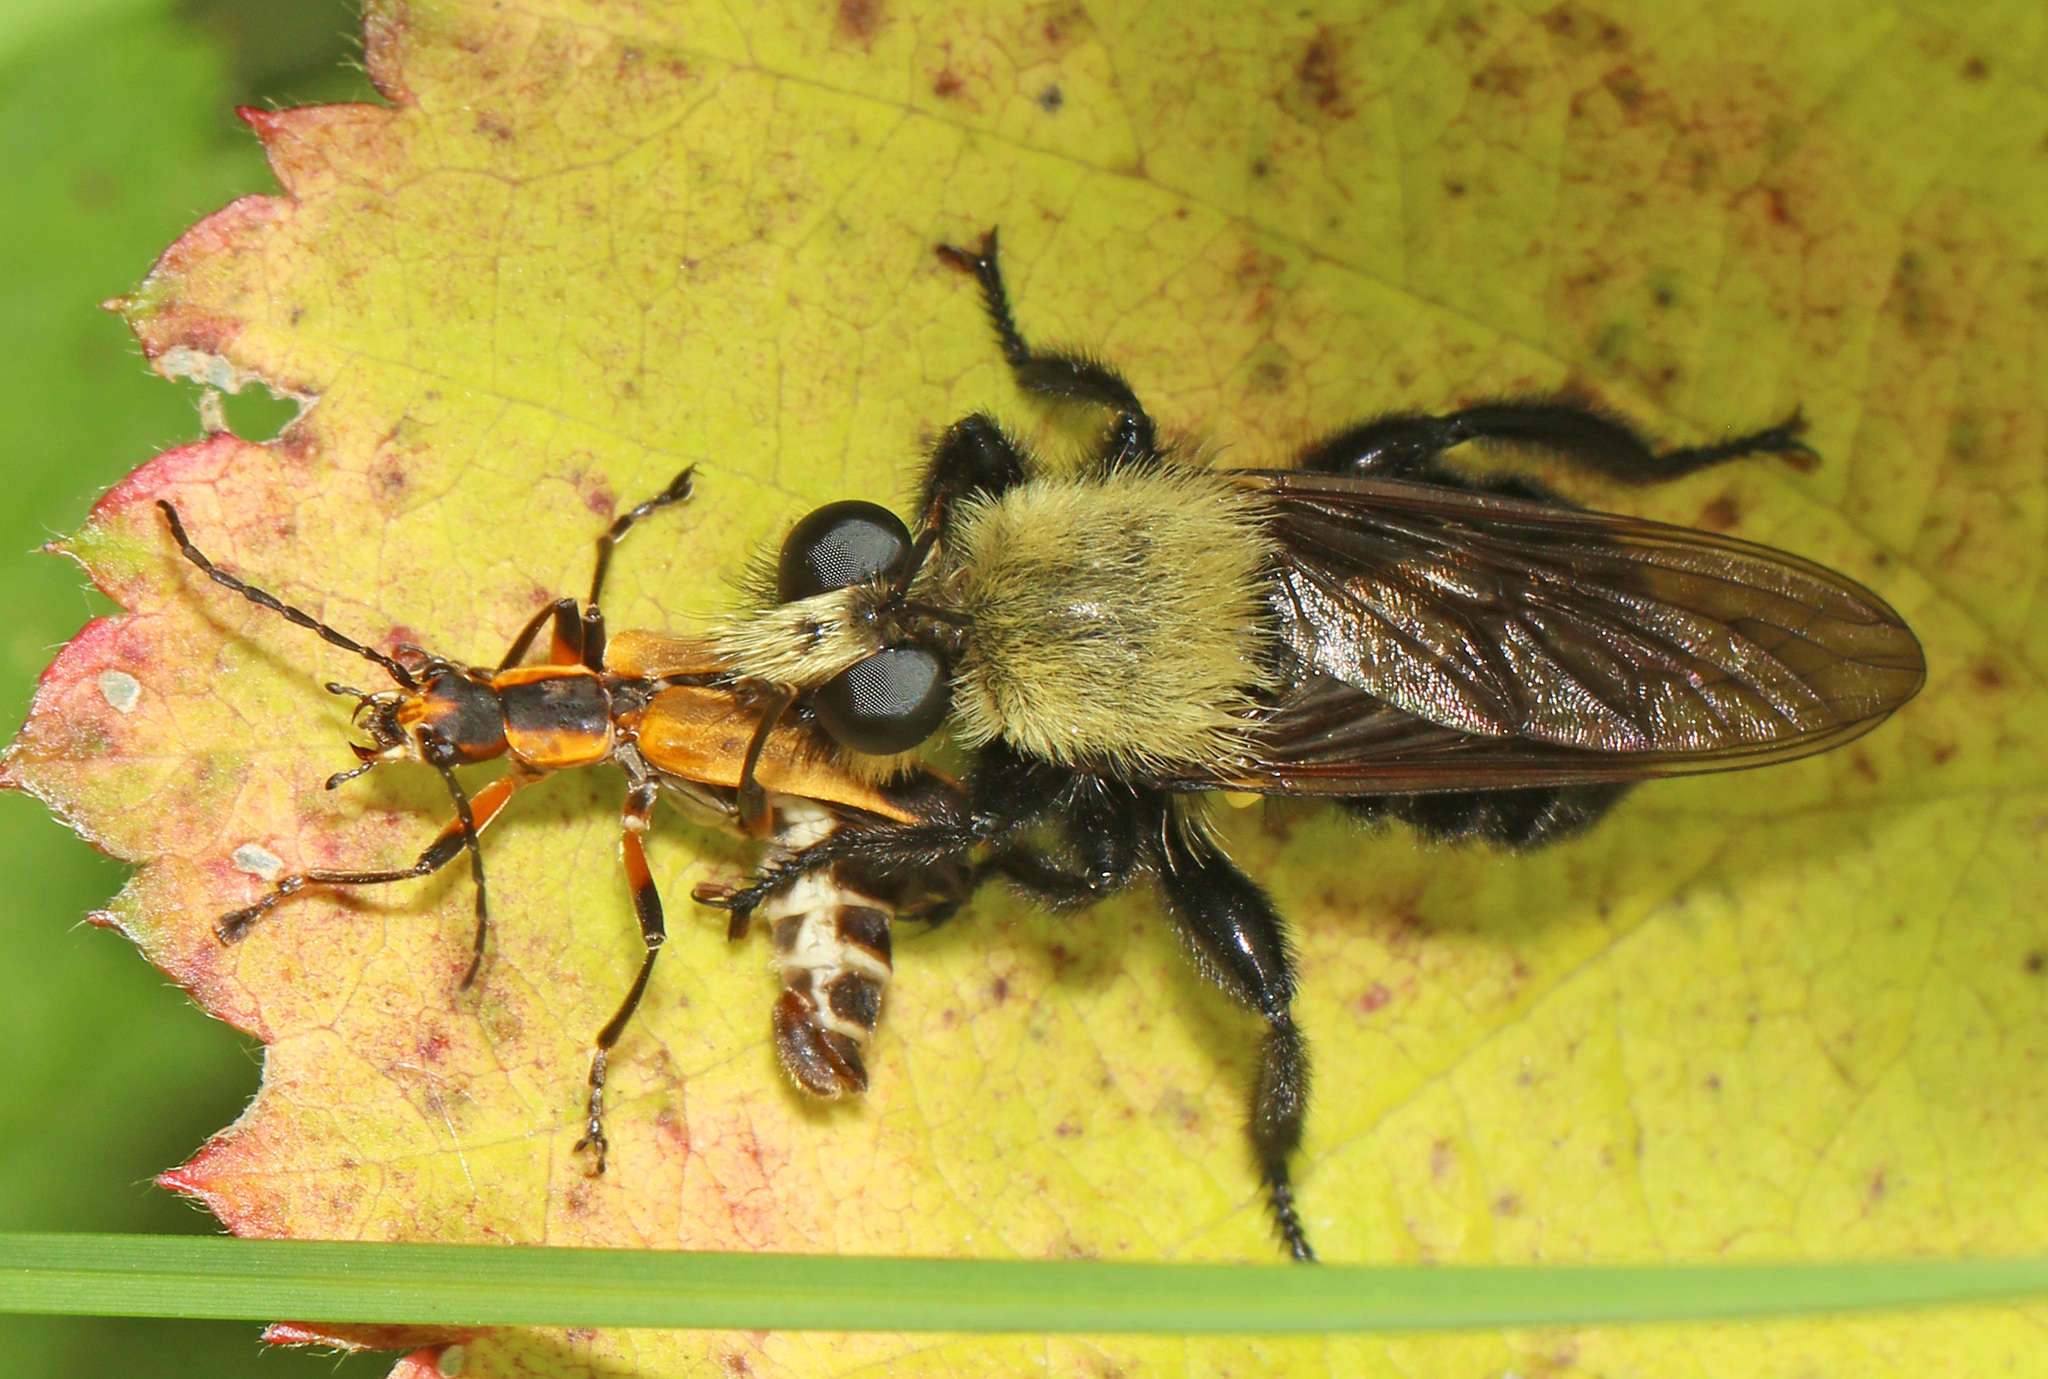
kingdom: Animalia
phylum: Arthropoda
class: Insecta
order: Diptera
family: Asilidae
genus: Laphria
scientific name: Laphria virginica
